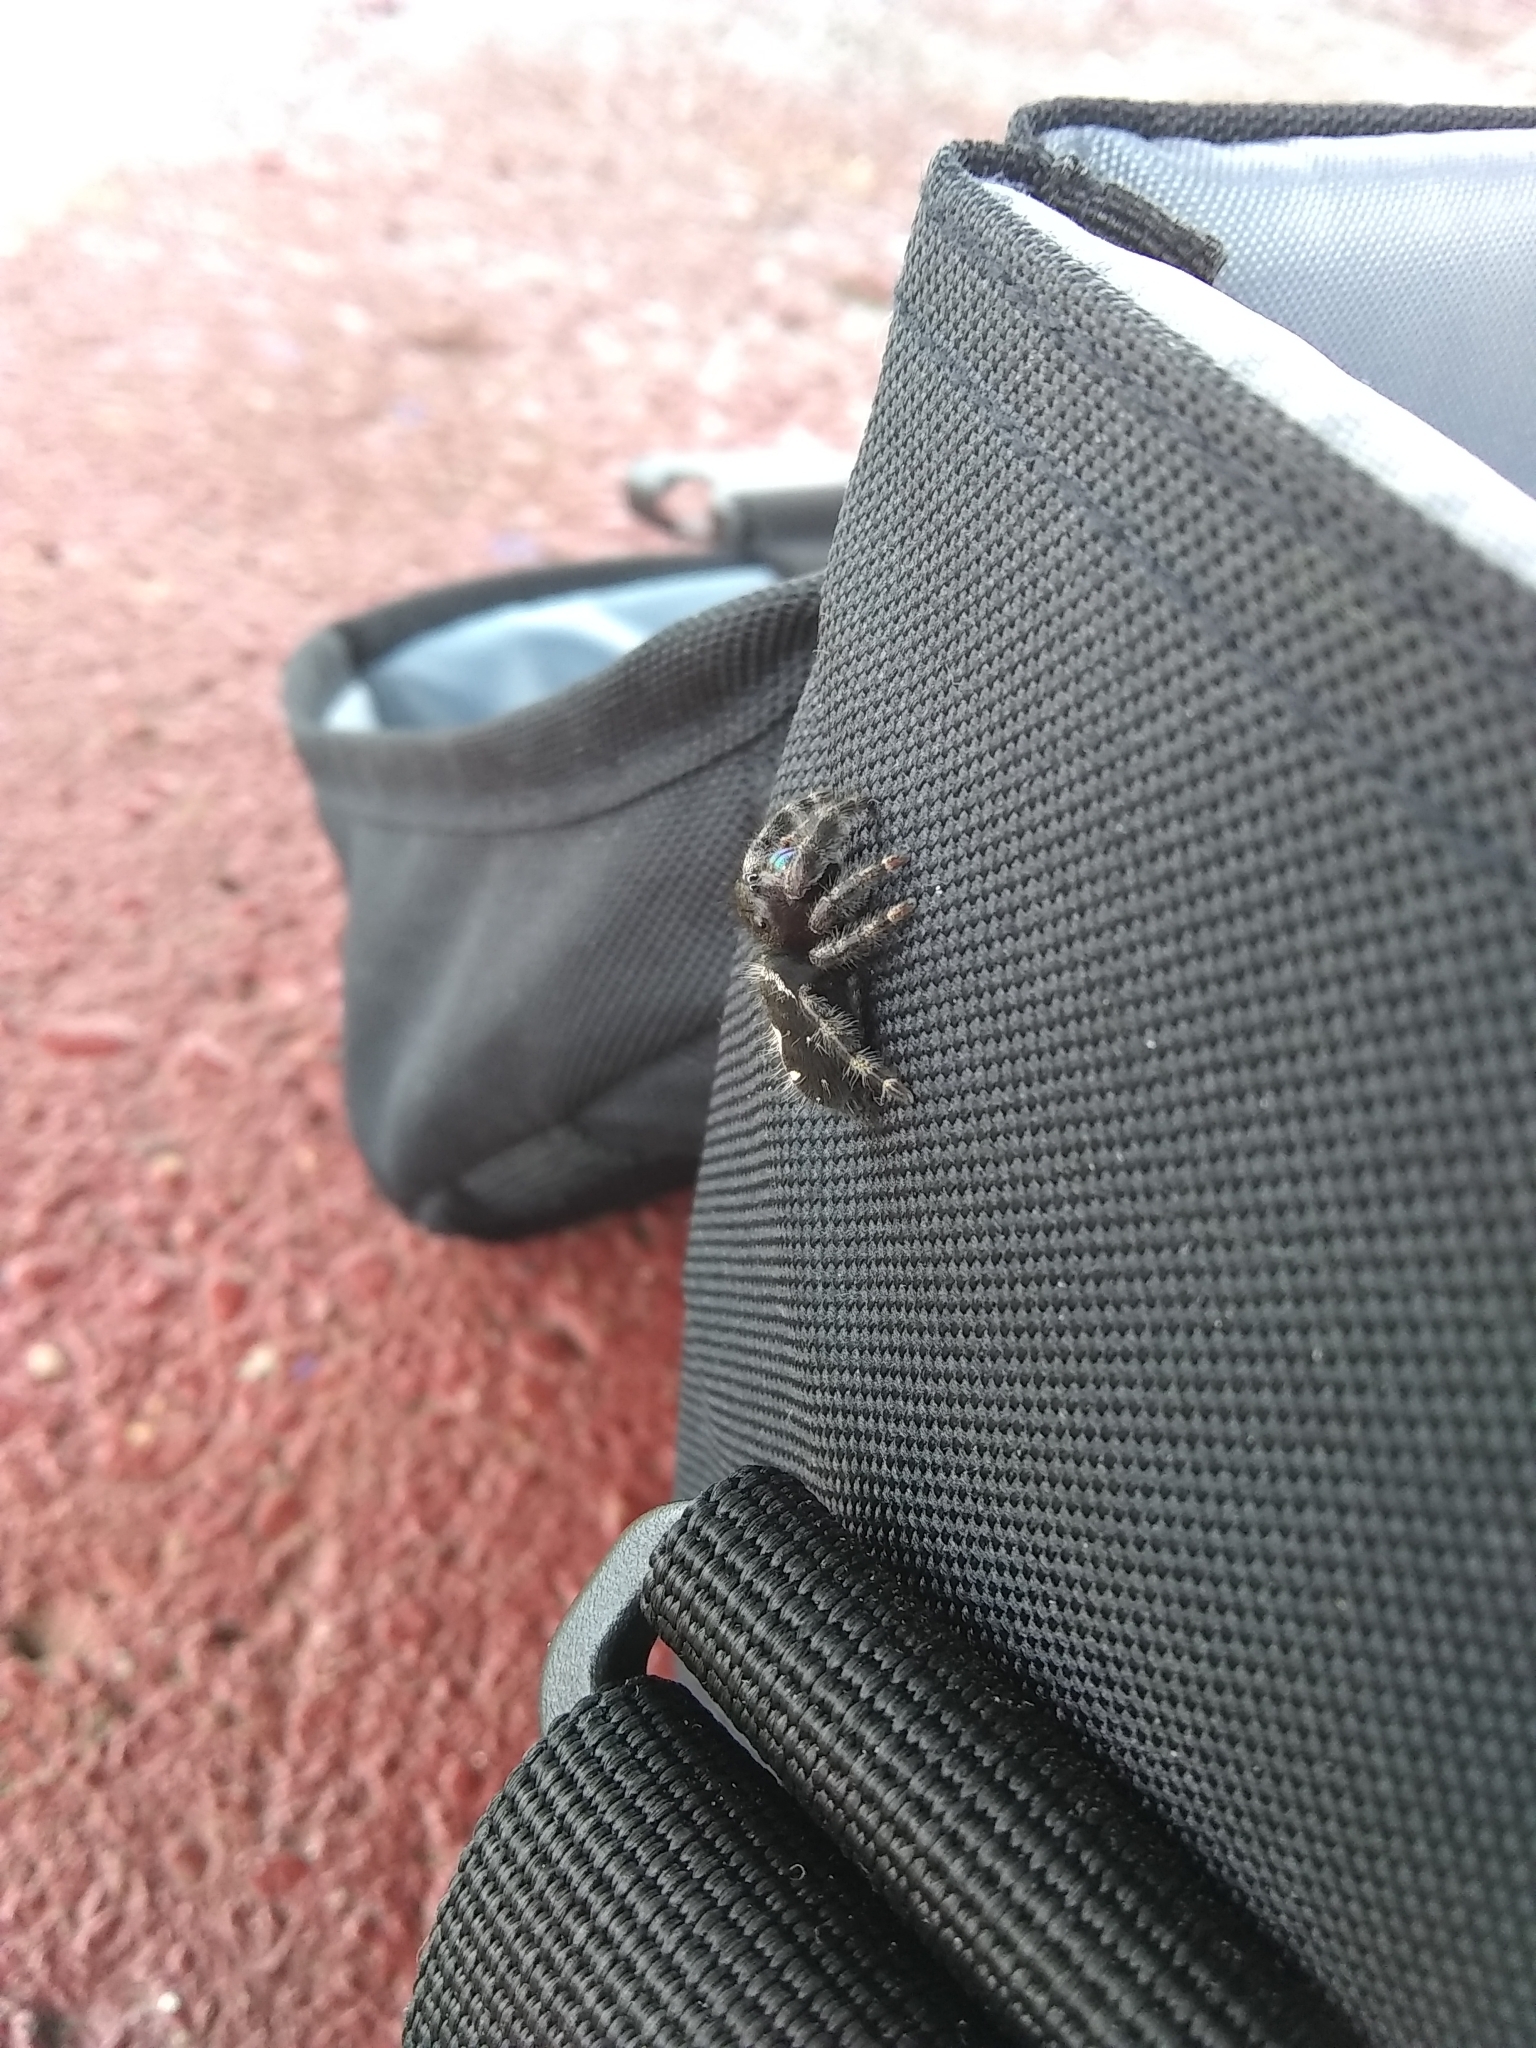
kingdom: Animalia
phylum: Arthropoda
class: Arachnida
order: Araneae
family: Salticidae
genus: Phidippus
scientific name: Phidippus audax
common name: Bold jumper
